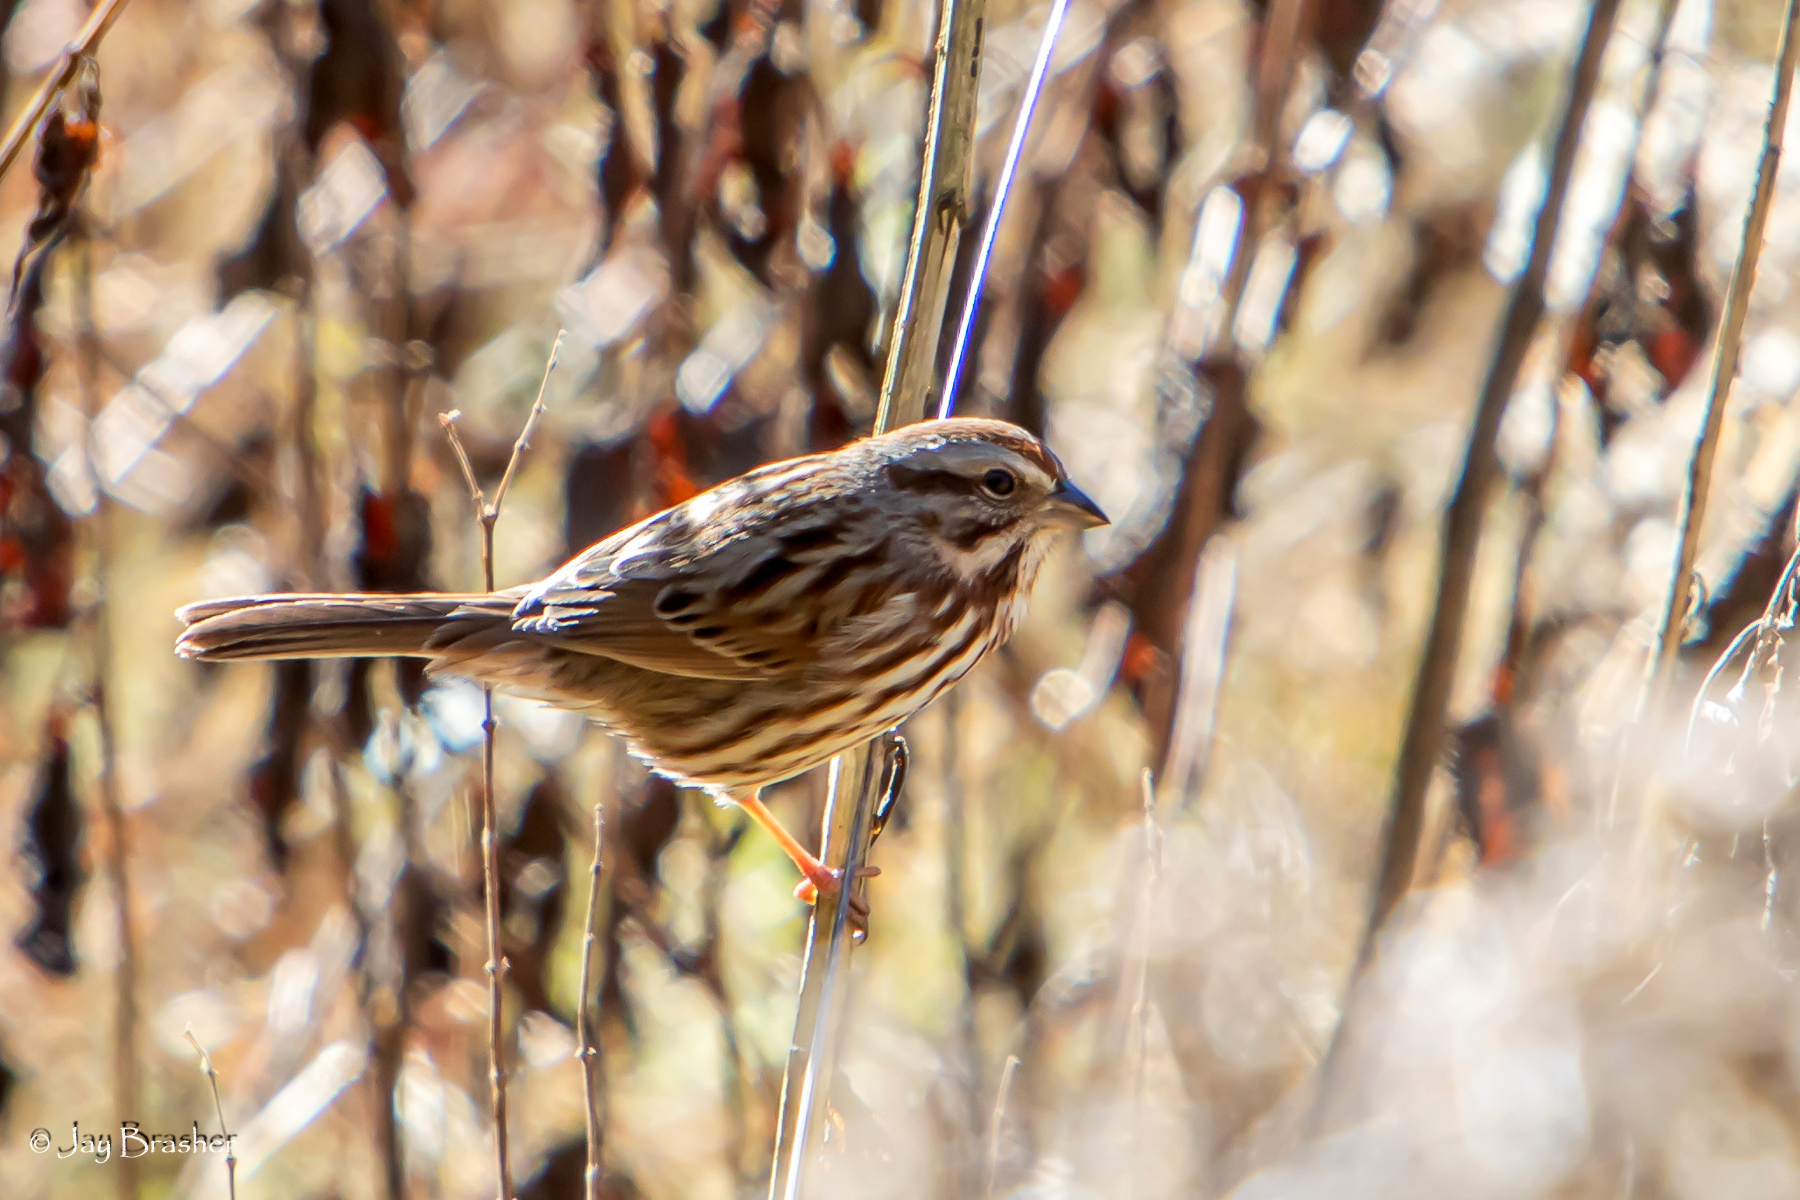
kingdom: Animalia
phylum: Chordata
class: Aves
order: Passeriformes
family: Passerellidae
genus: Melospiza
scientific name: Melospiza melodia
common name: Song sparrow
